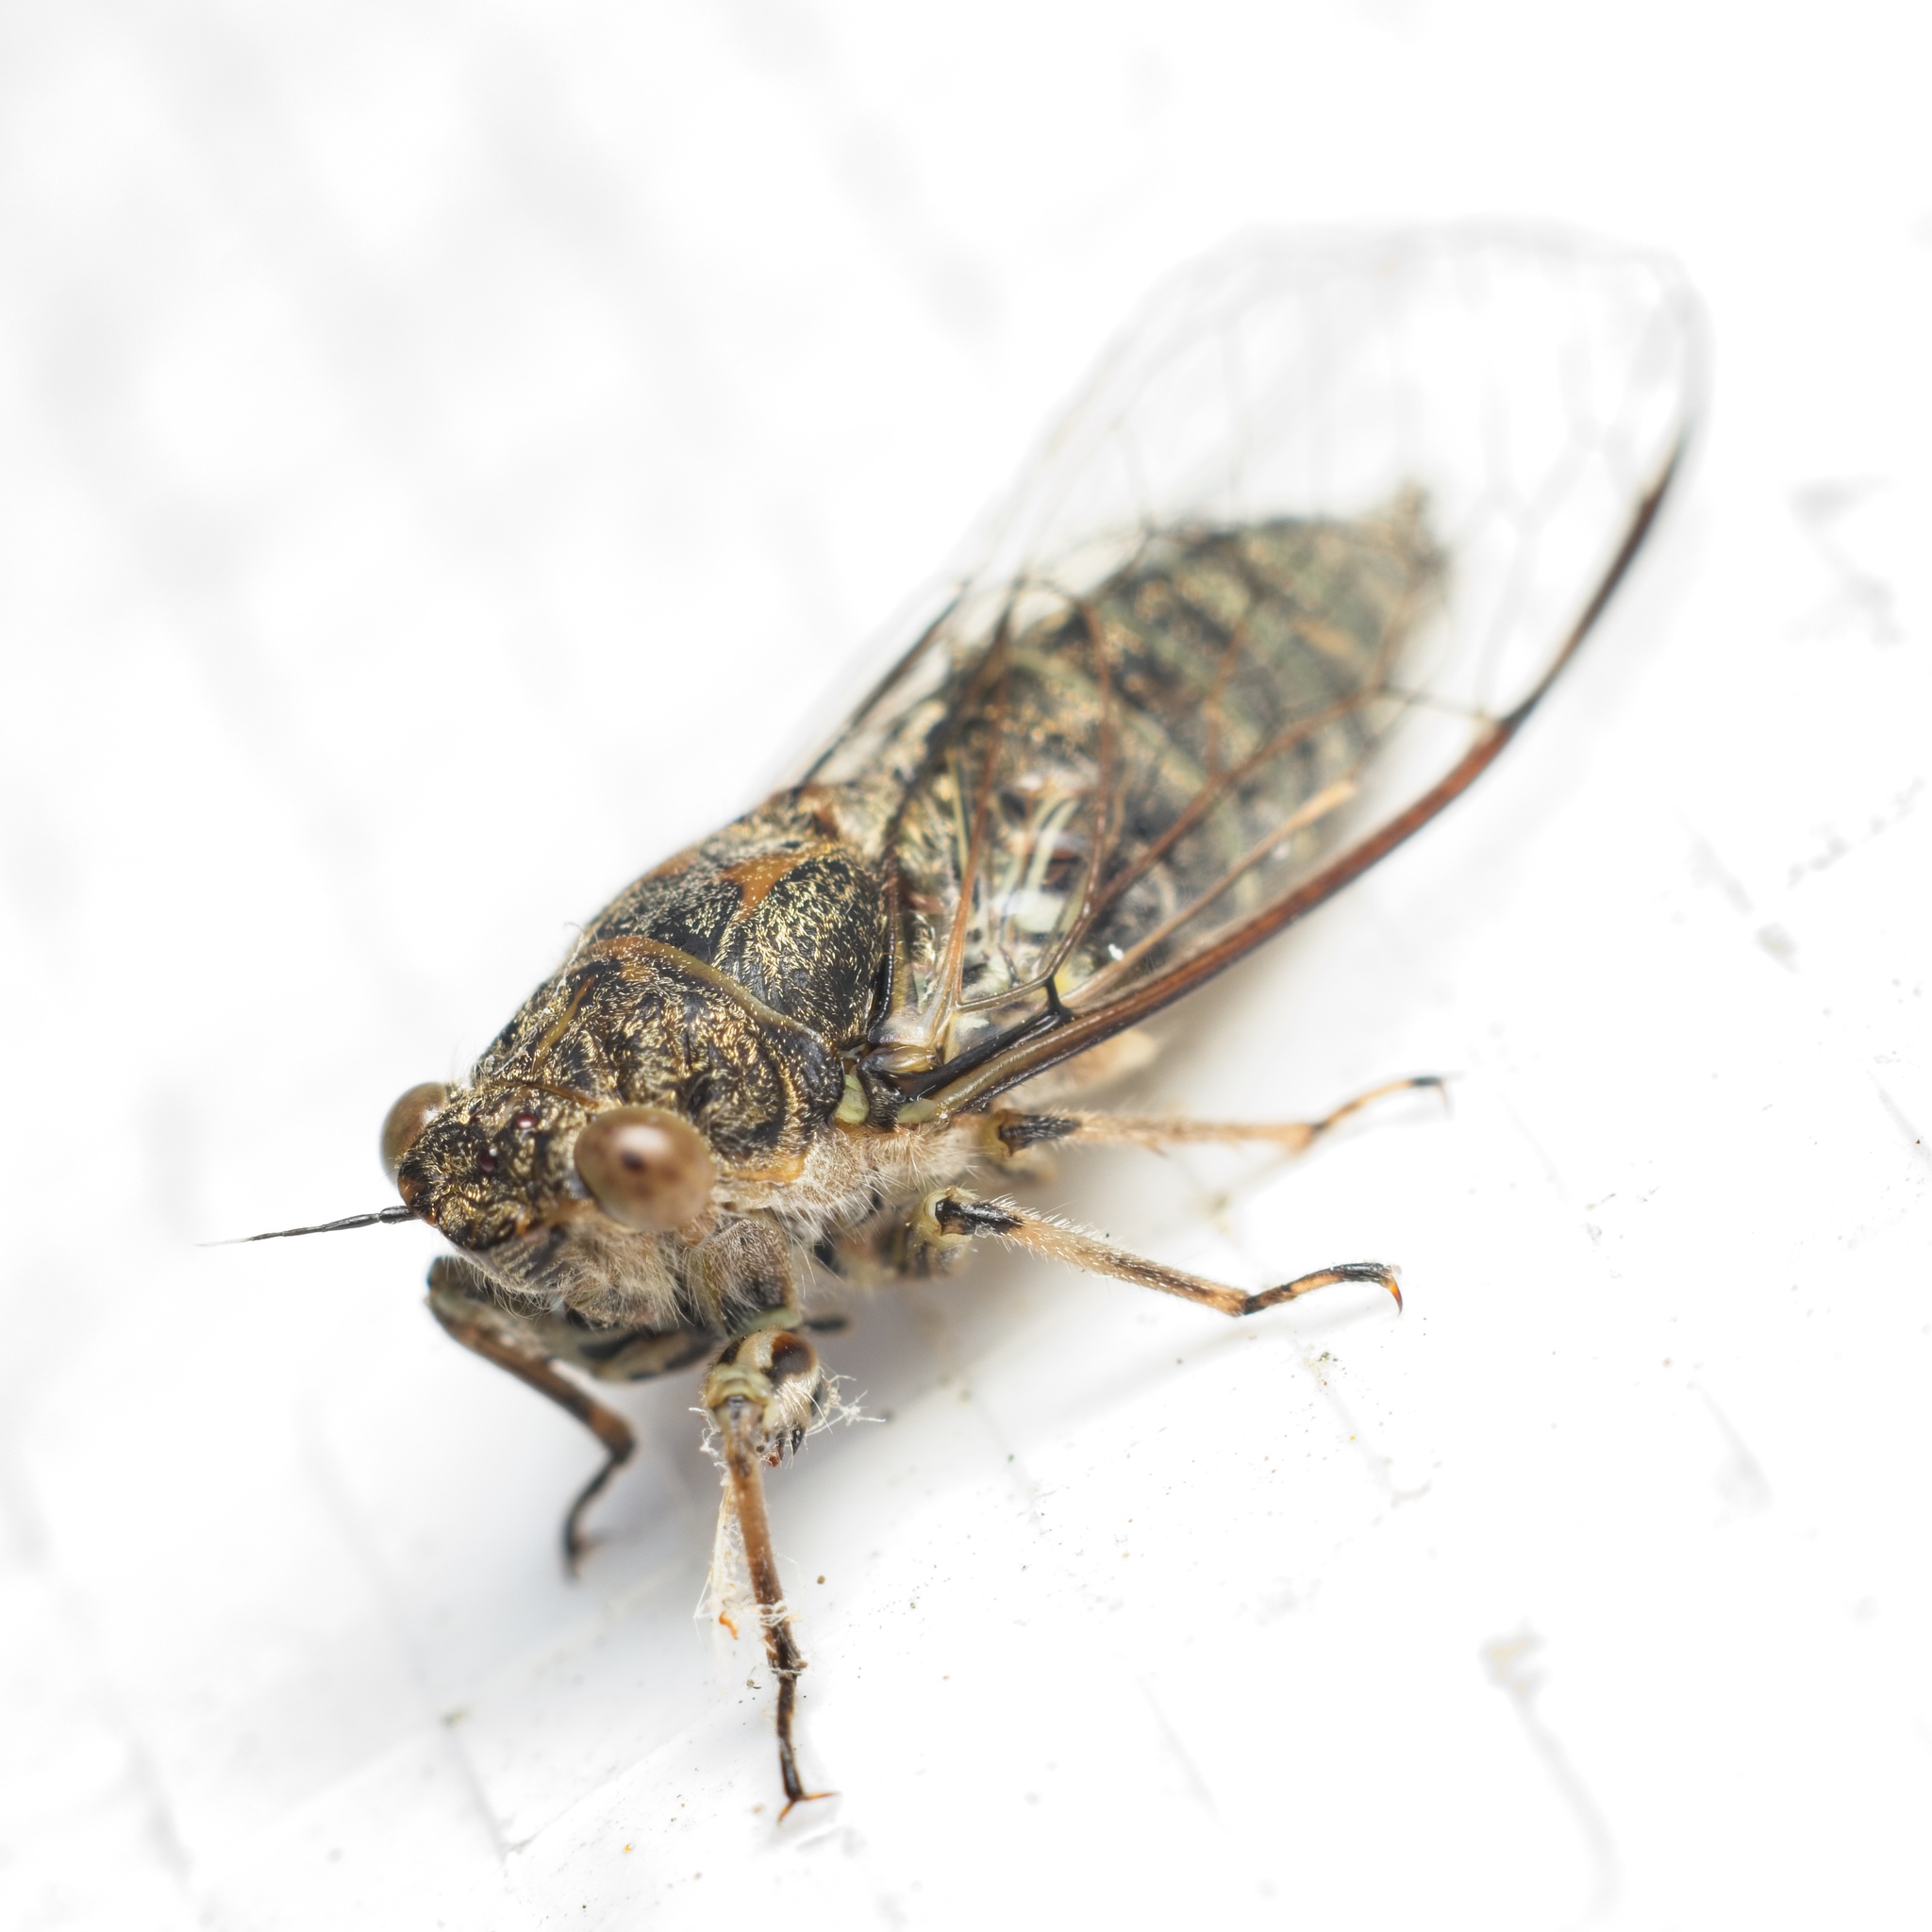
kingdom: Animalia
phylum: Arthropoda
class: Insecta
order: Hemiptera
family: Cicadidae
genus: Notopsalta
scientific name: Notopsalta sericea
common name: Clay bank cicada
